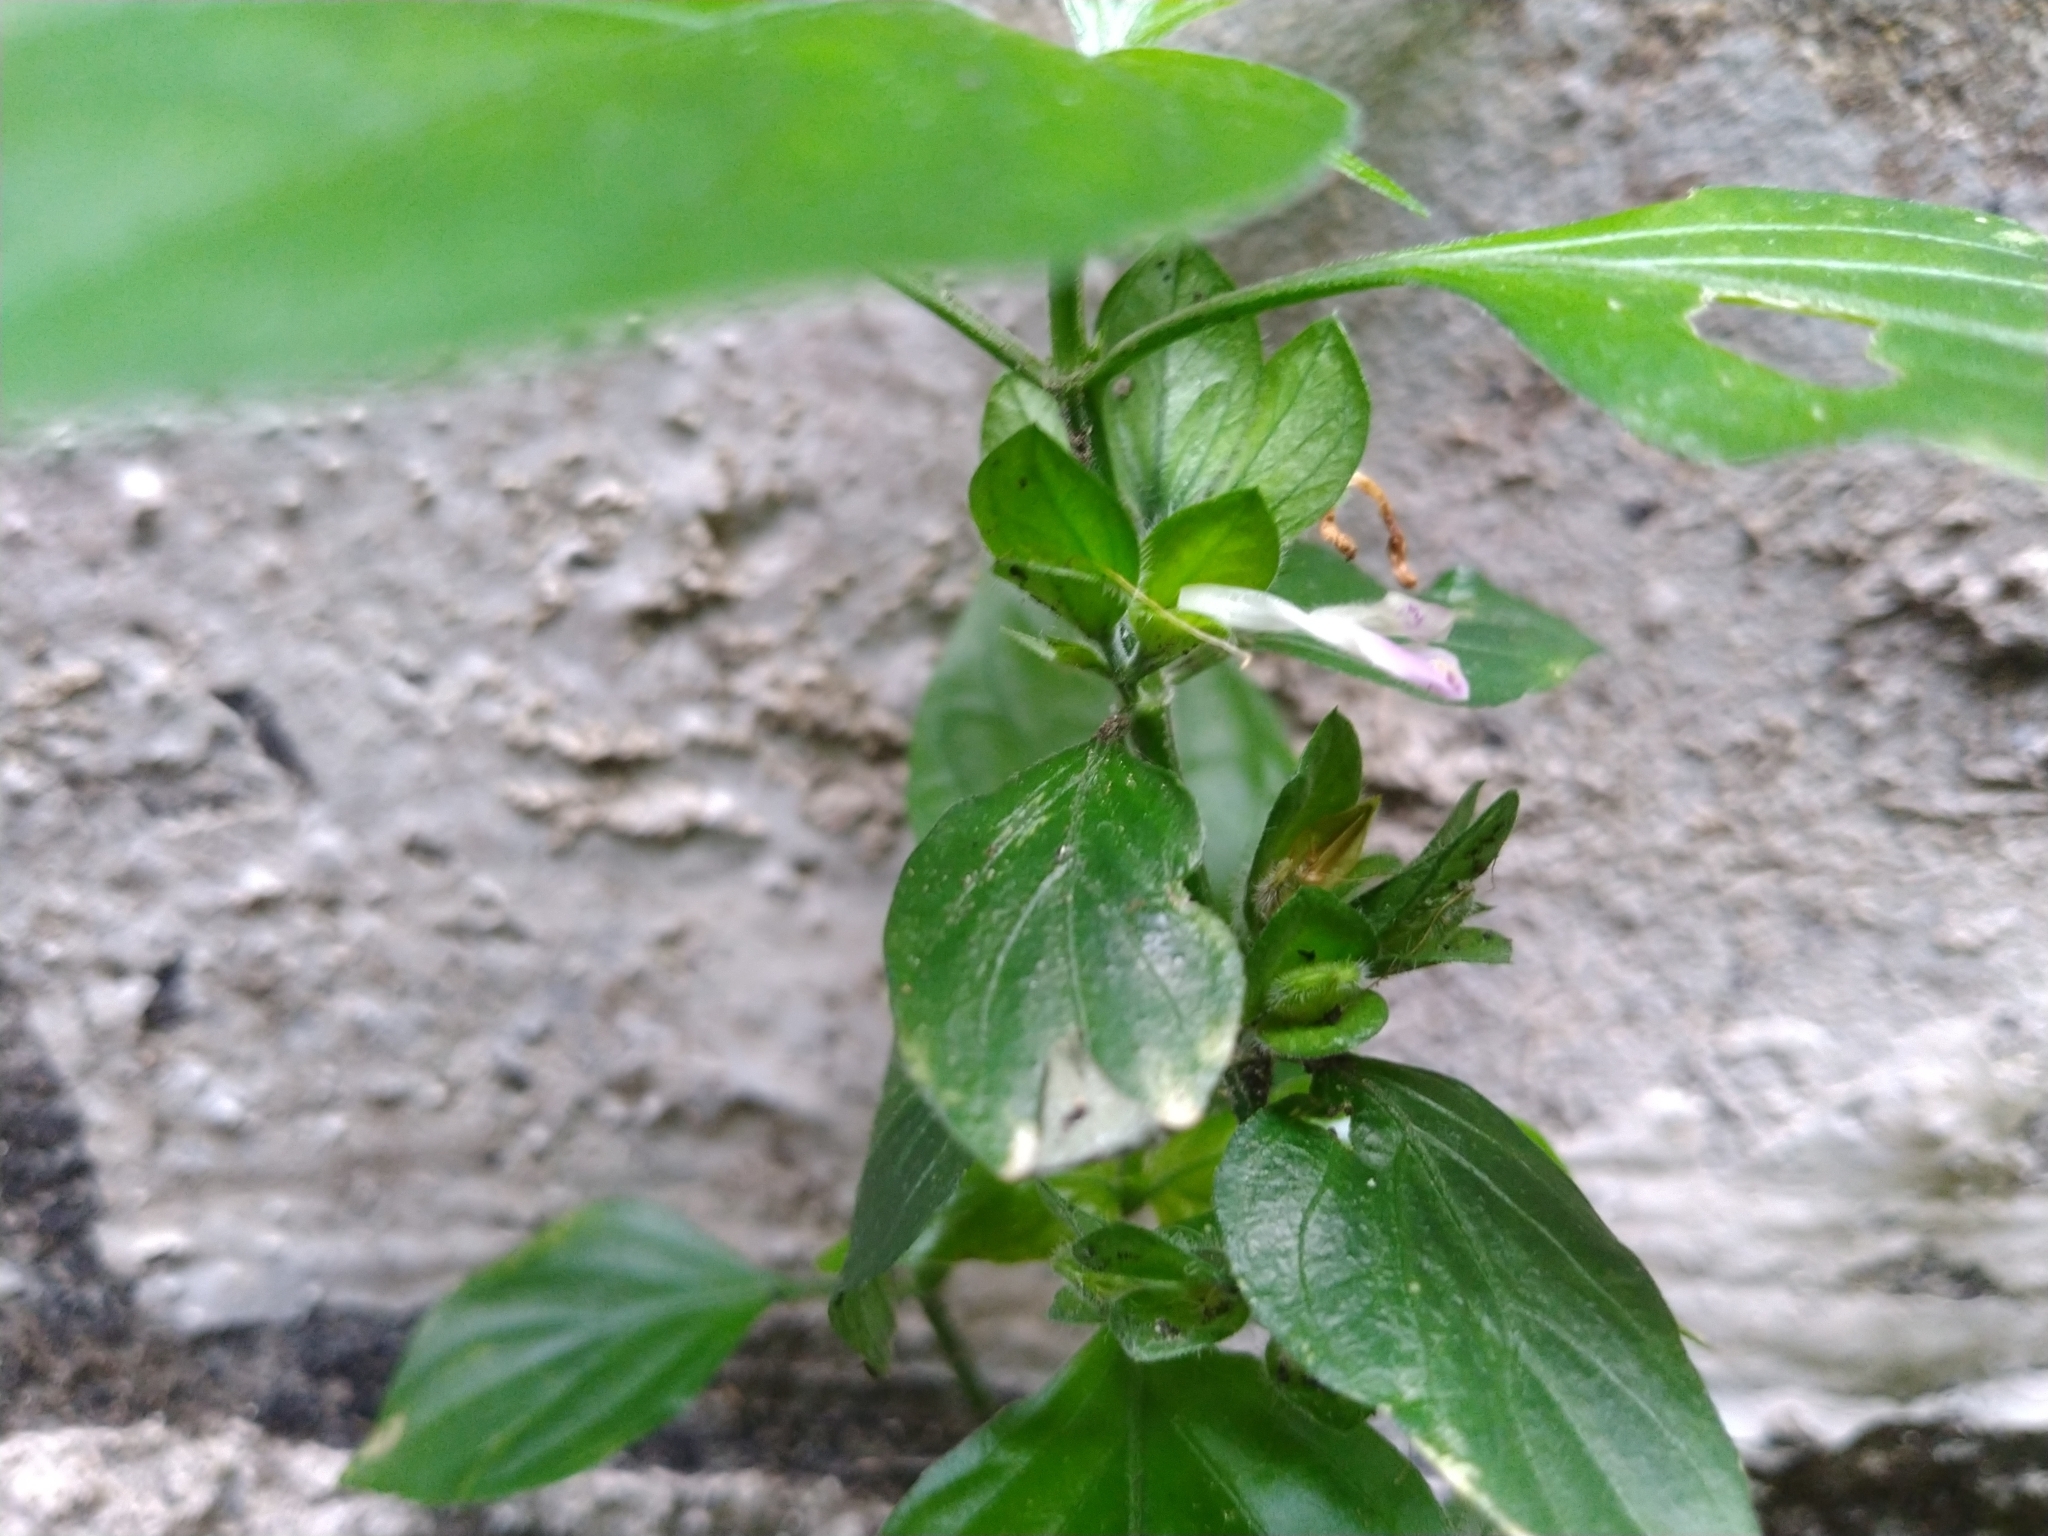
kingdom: Plantae
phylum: Tracheophyta
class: Magnoliopsida
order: Lamiales
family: Acanthaceae
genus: Dicliptera
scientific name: Dicliptera chinensis
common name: Chinese foldwing
